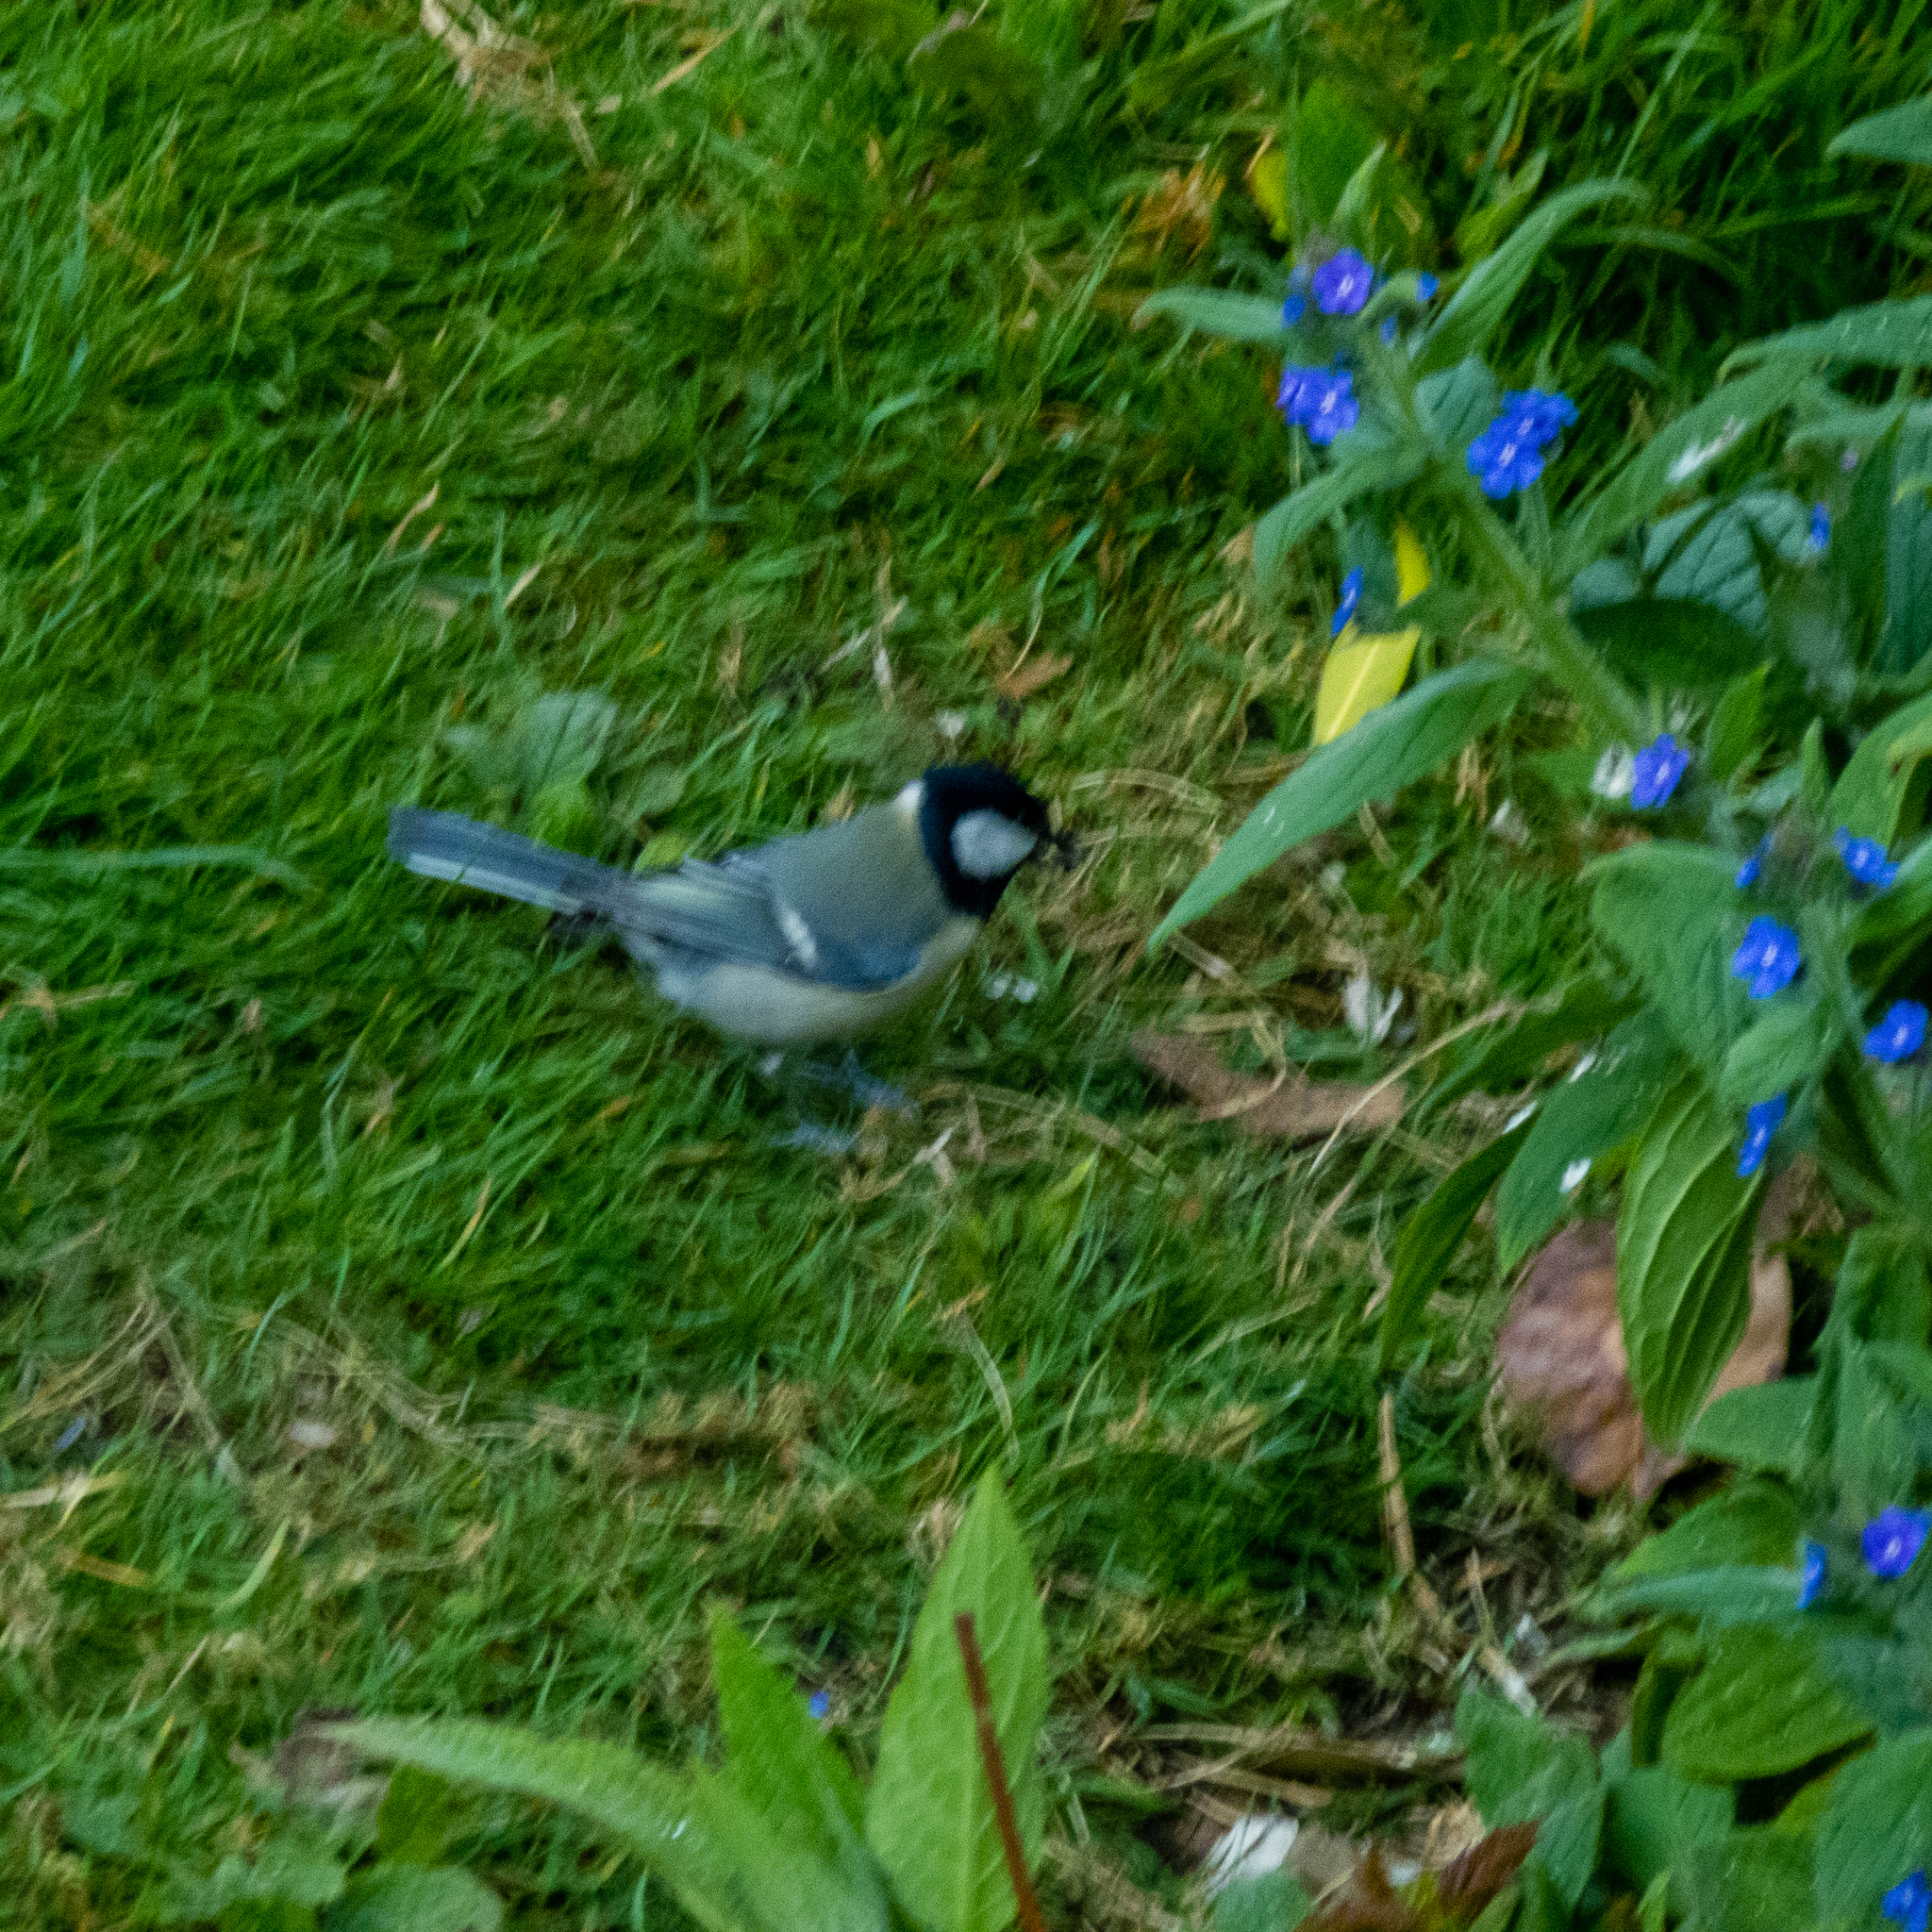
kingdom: Animalia
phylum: Chordata
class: Aves
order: Passeriformes
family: Paridae
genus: Parus
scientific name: Parus major
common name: Great tit
